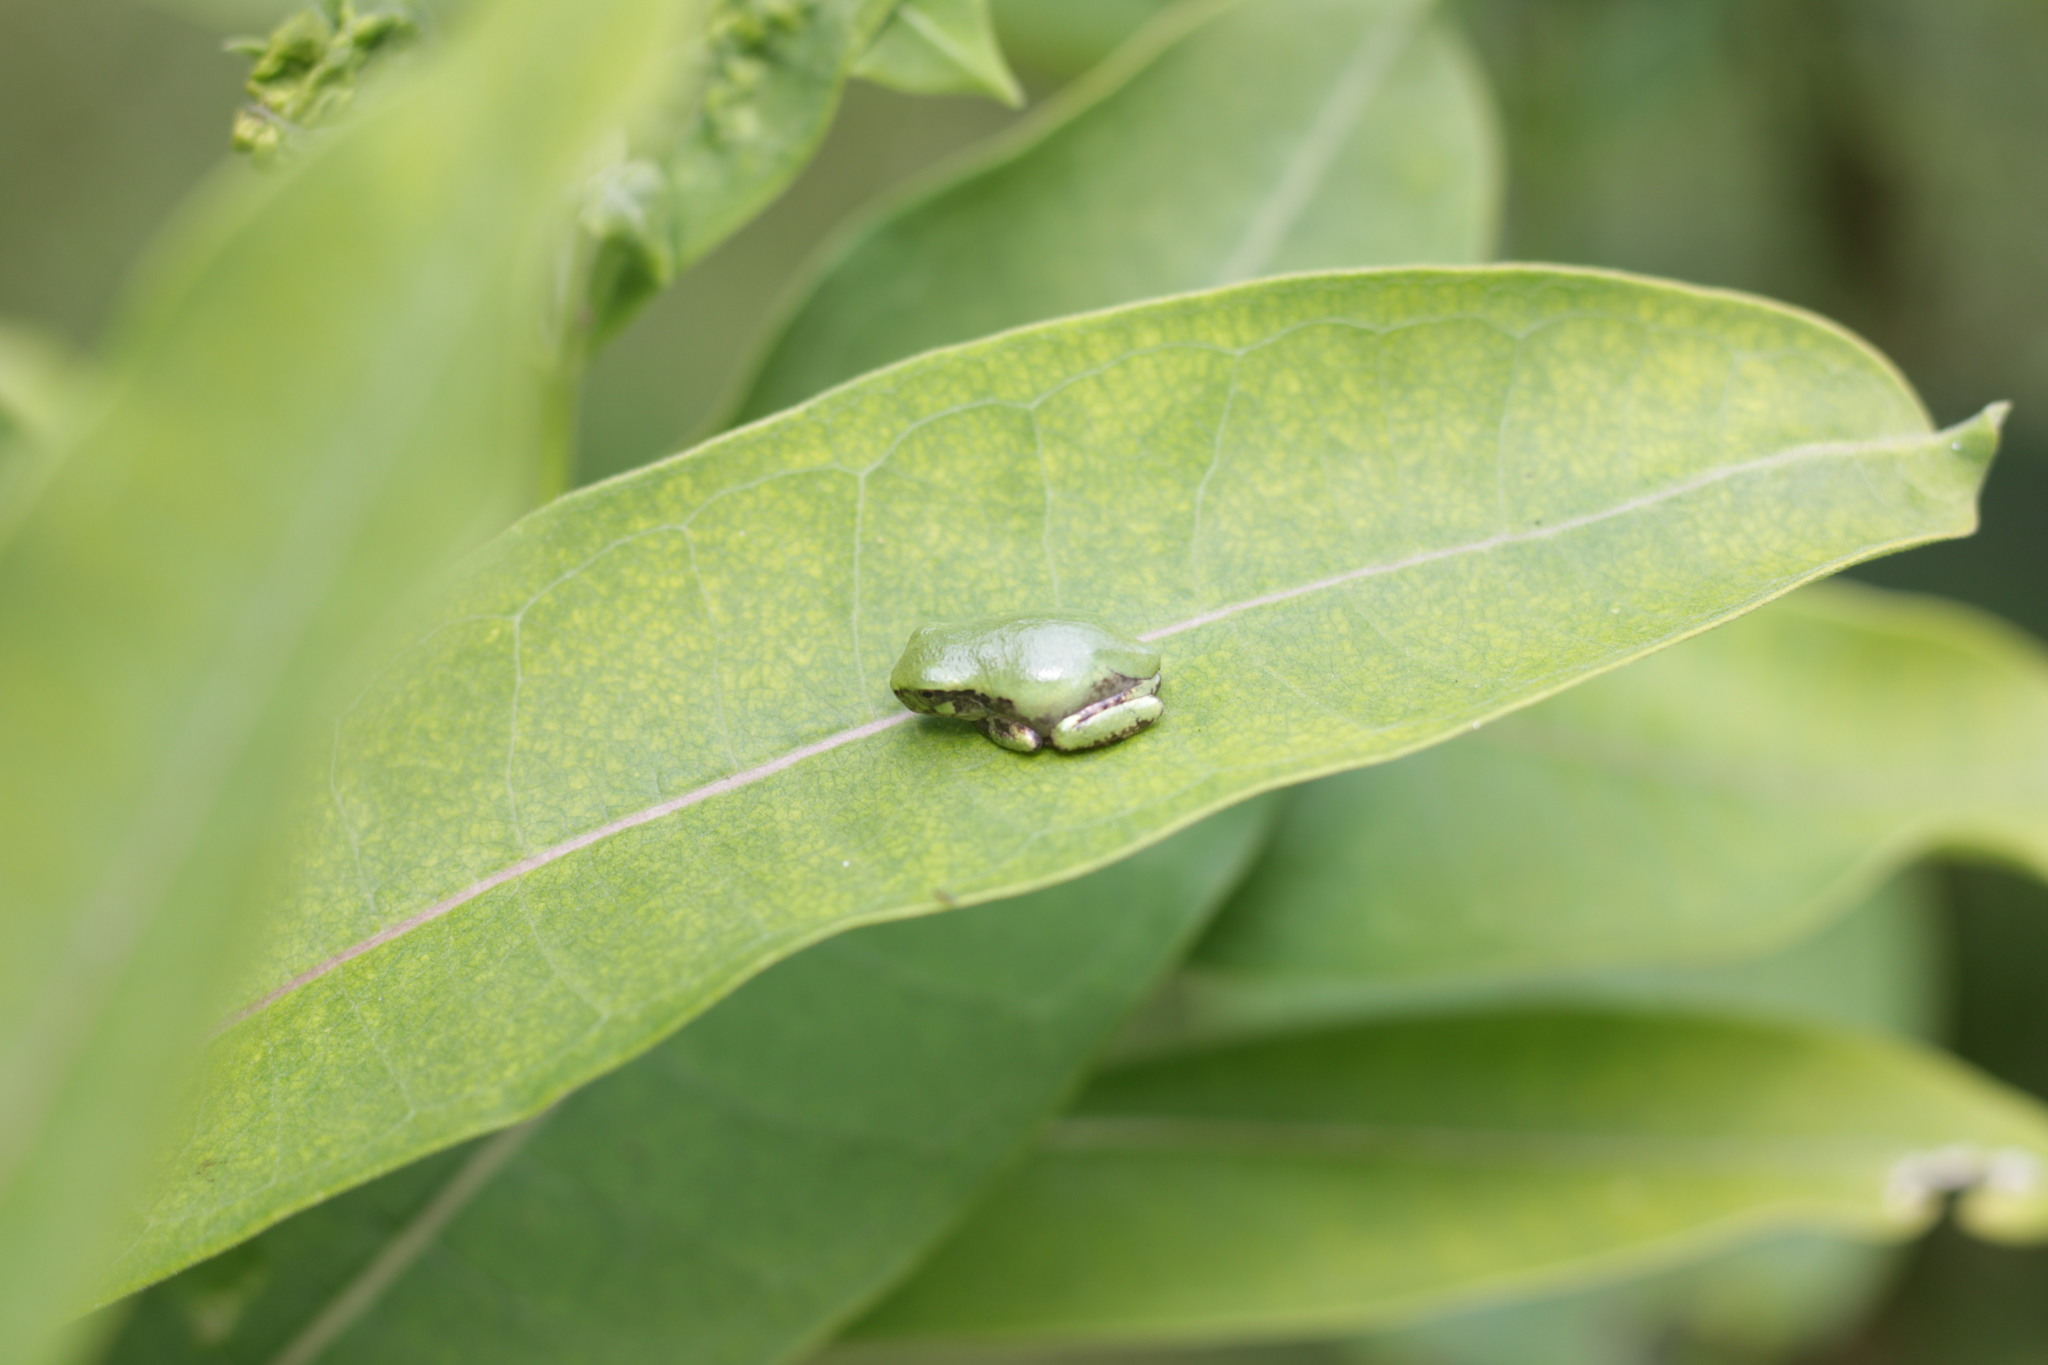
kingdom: Animalia
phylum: Chordata
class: Amphibia
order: Anura
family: Hylidae
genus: Hyla
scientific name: Hyla
